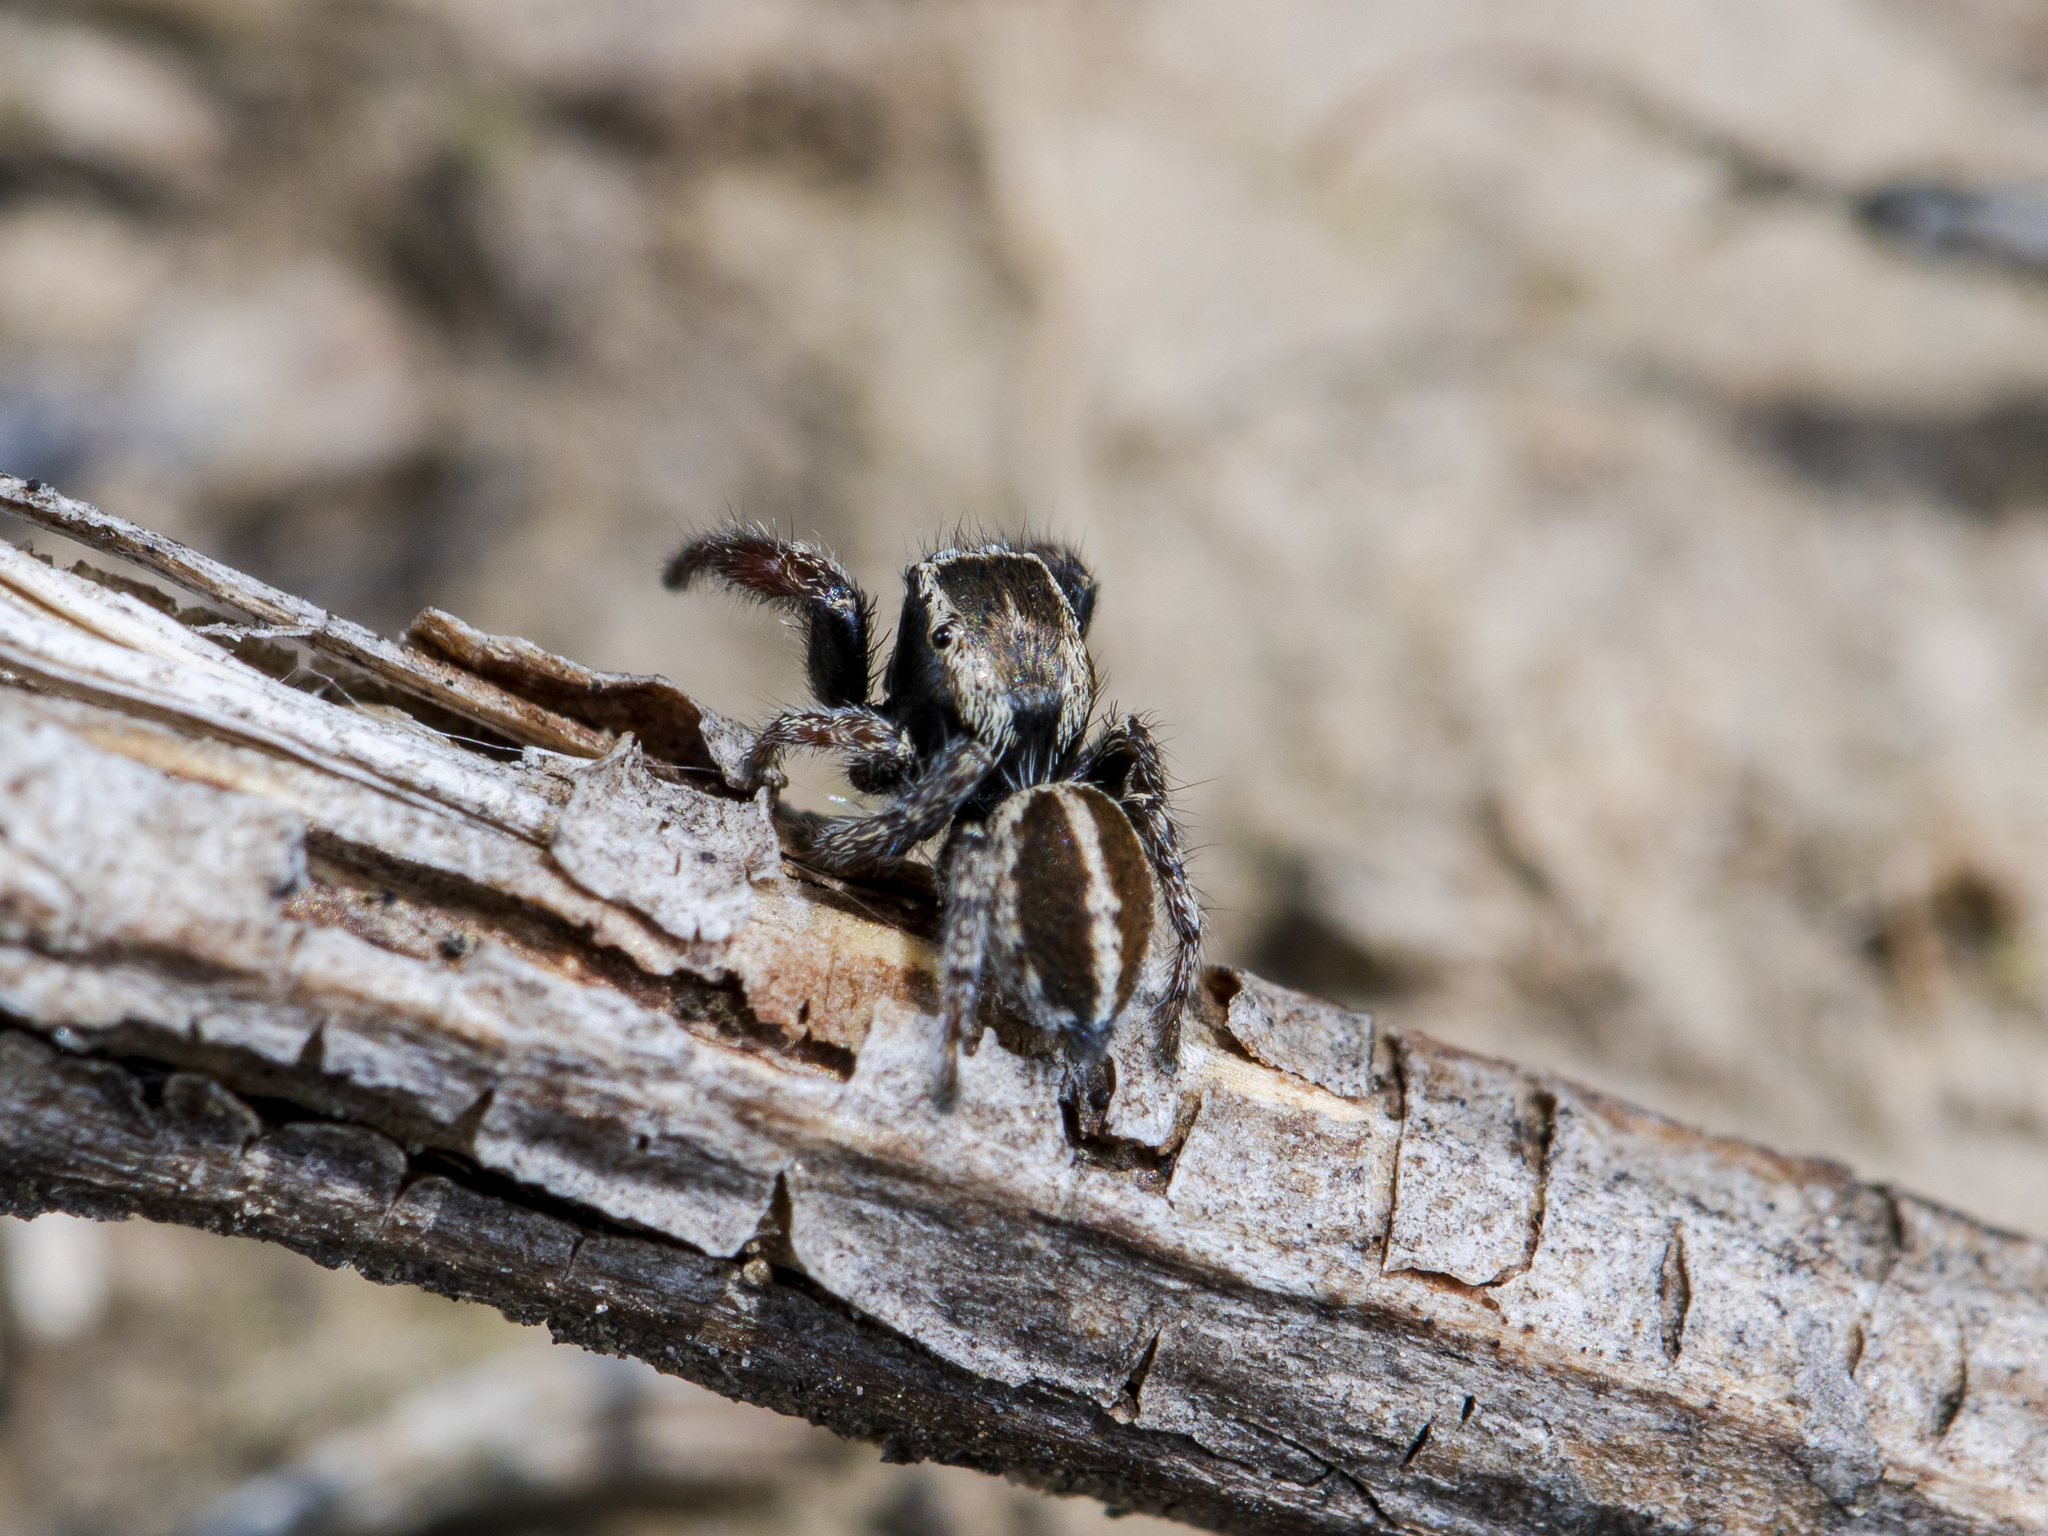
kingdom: Animalia
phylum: Arthropoda
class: Arachnida
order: Araneae
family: Salticidae
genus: Pellenes
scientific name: Pellenes epularis
